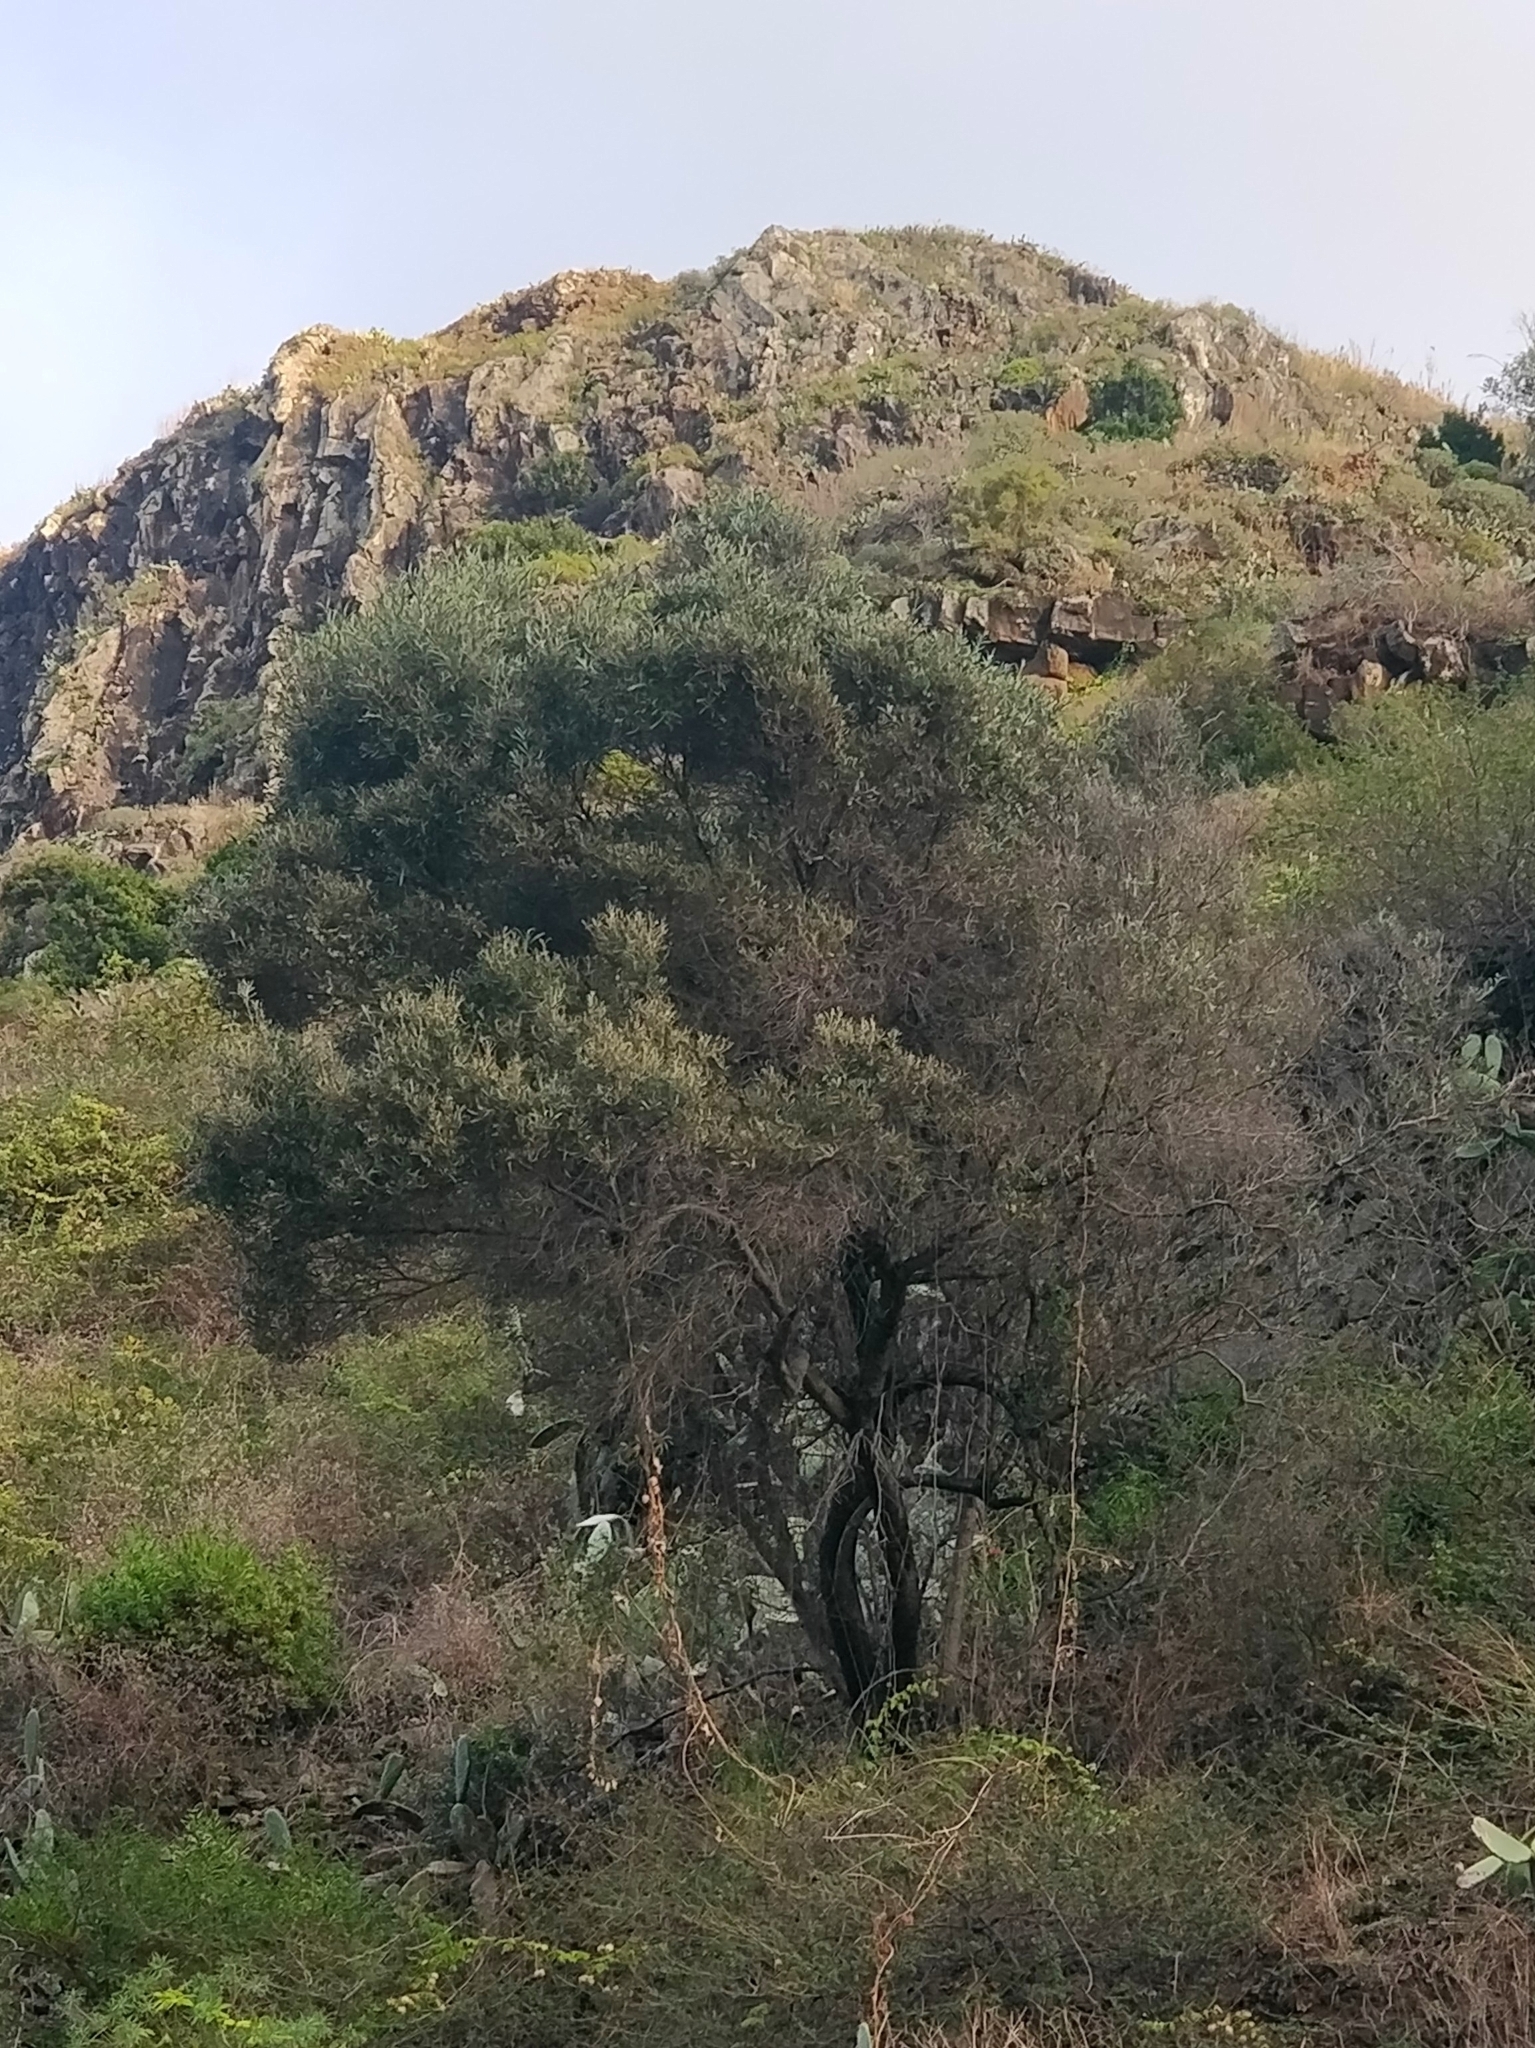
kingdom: Plantae
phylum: Tracheophyta
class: Magnoliopsida
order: Lamiales
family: Oleaceae
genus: Olea
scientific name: Olea europaea
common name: Olive
